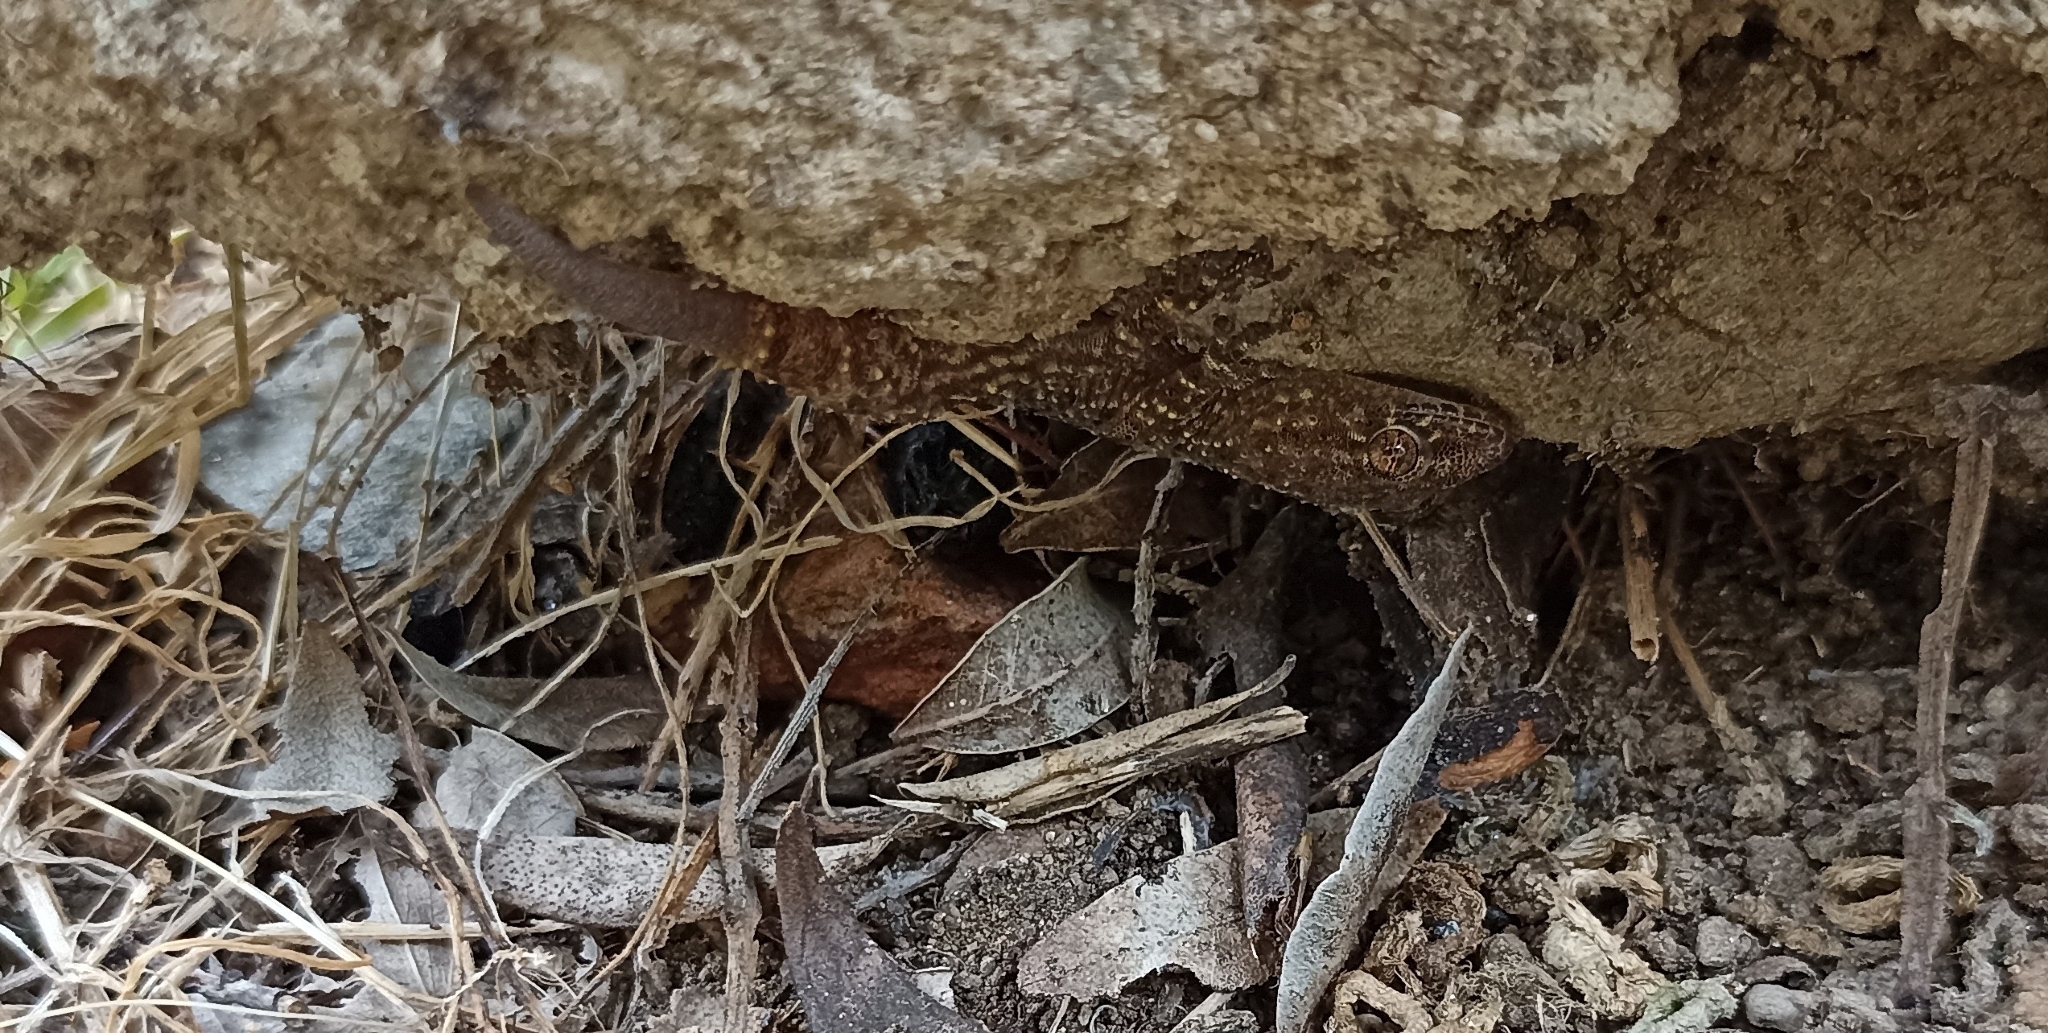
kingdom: Animalia
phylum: Chordata
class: Squamata
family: Gekkonidae
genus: Hemidactylus
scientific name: Hemidactylus turcicus
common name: Turkish gecko
